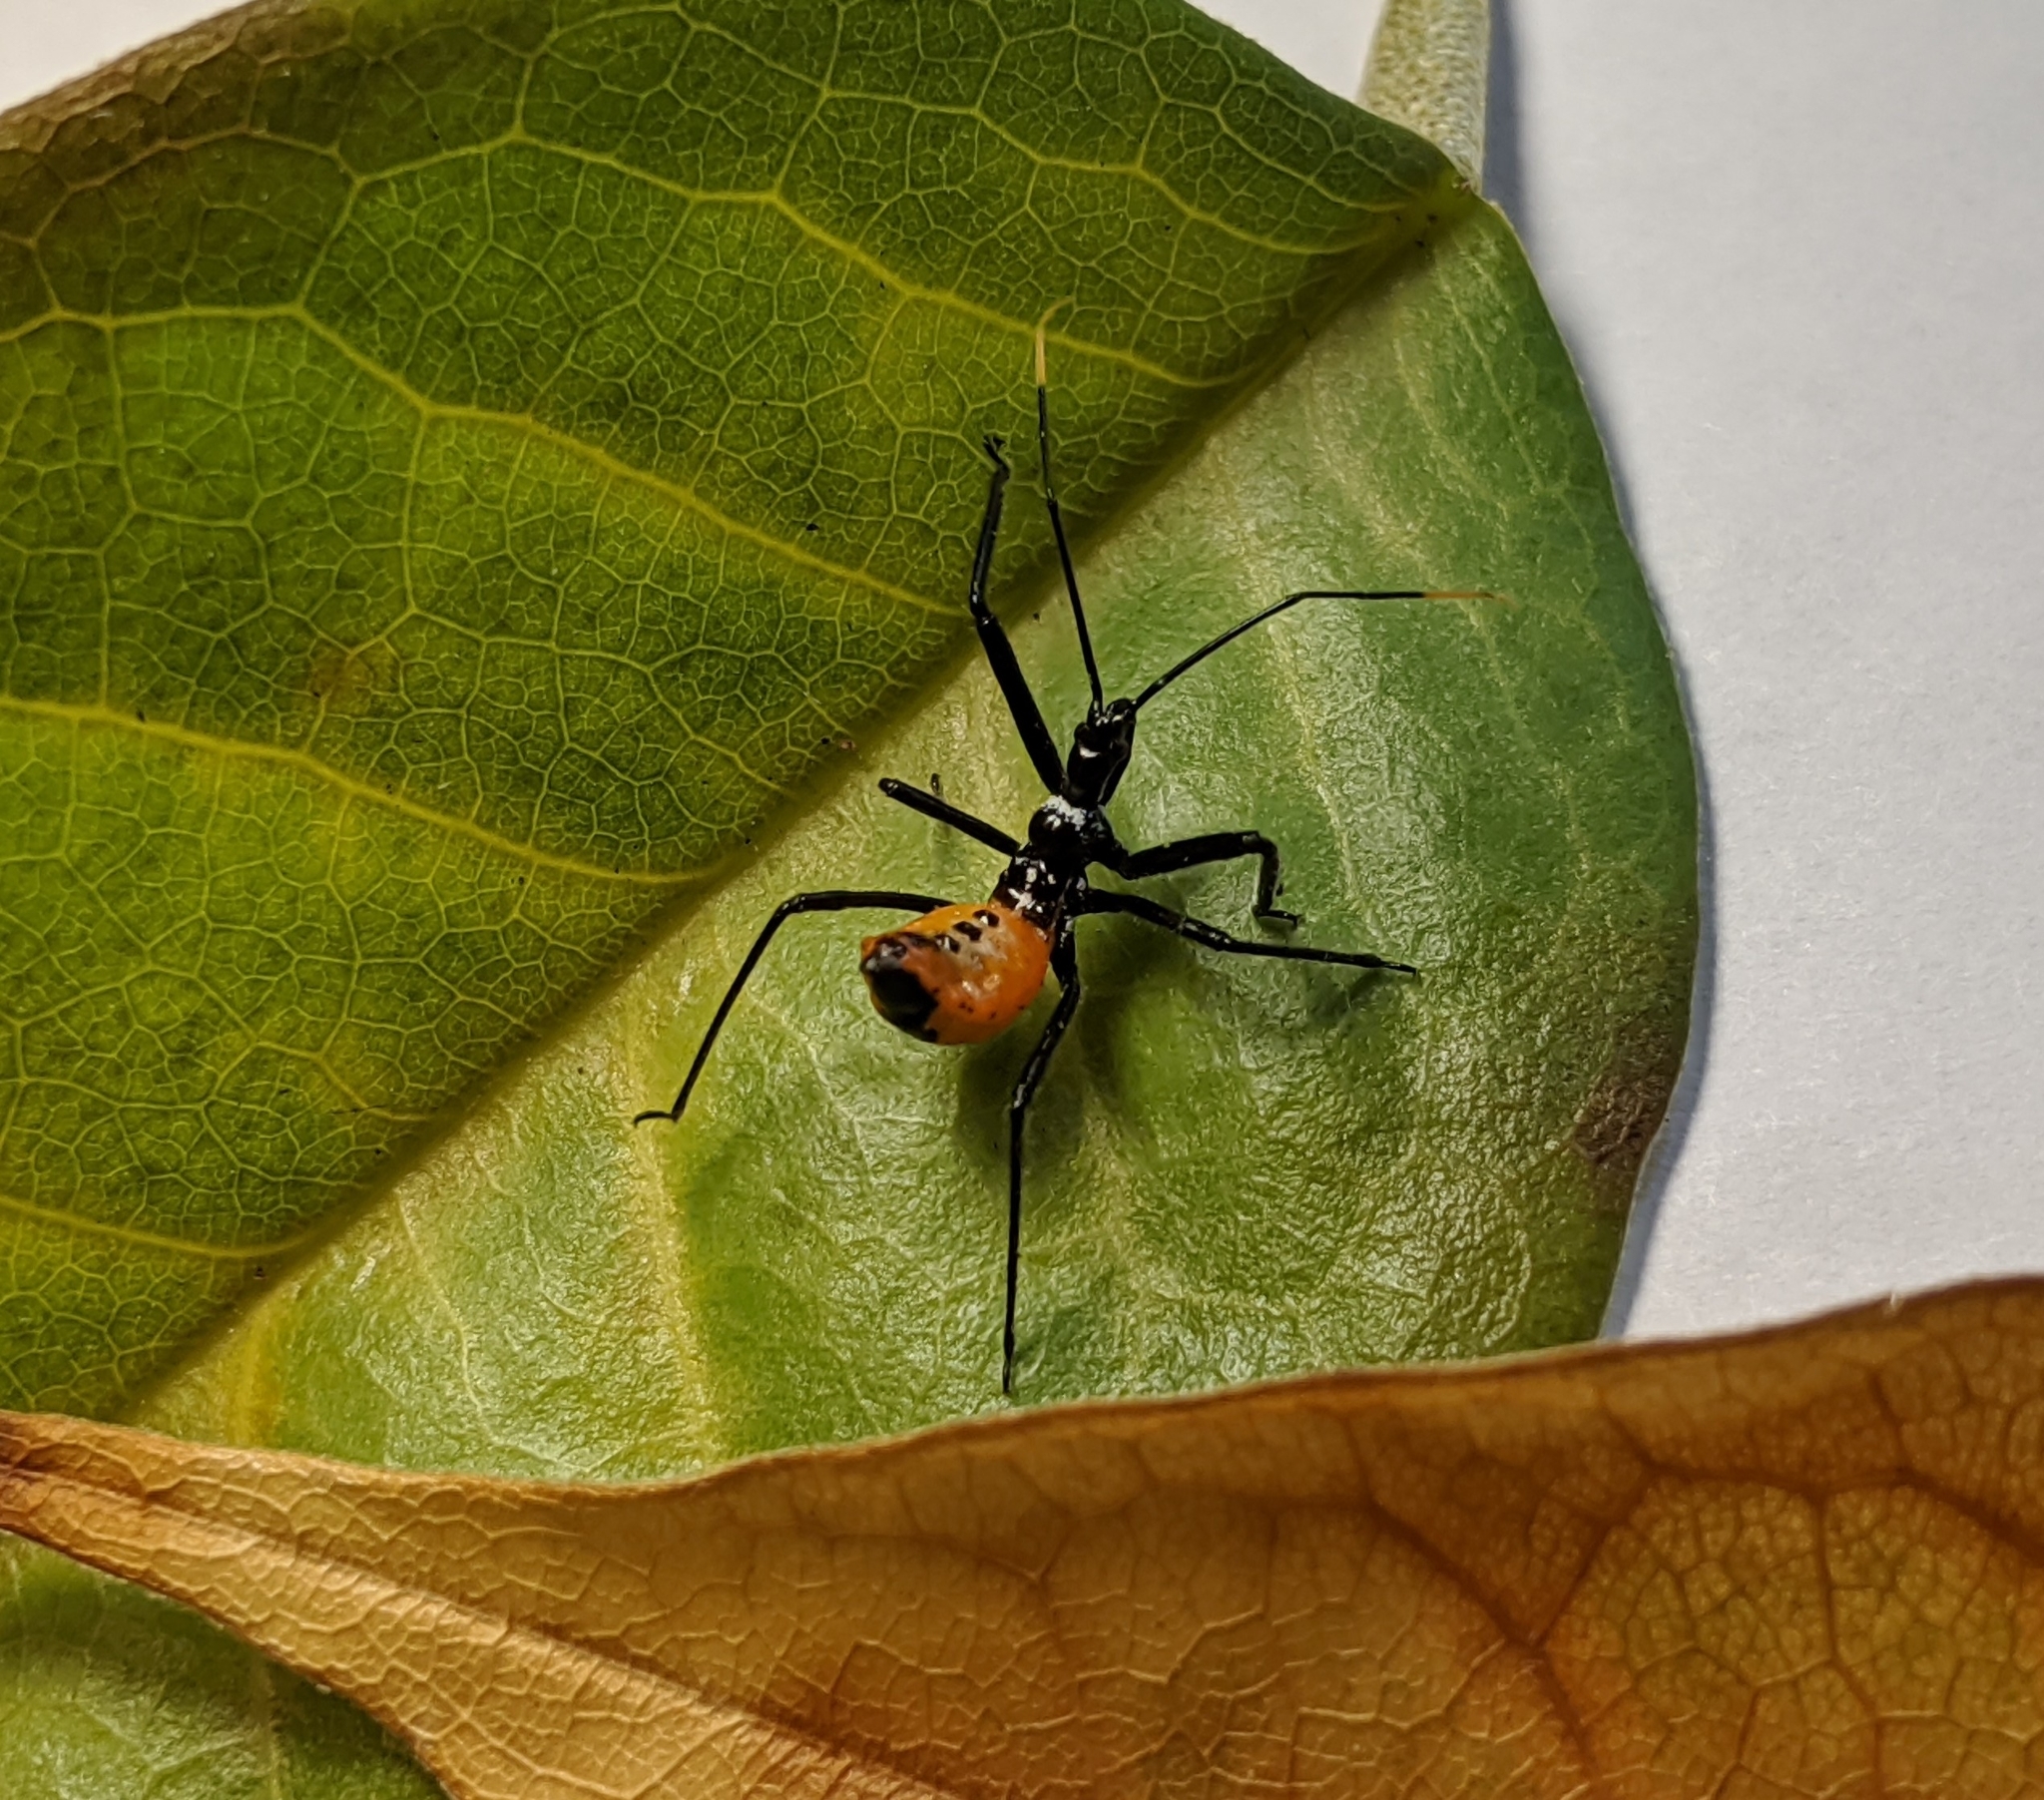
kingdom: Animalia
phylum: Arthropoda
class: Insecta
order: Hemiptera
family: Reduviidae
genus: Arilus
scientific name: Arilus cristatus
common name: North american wheel bug
